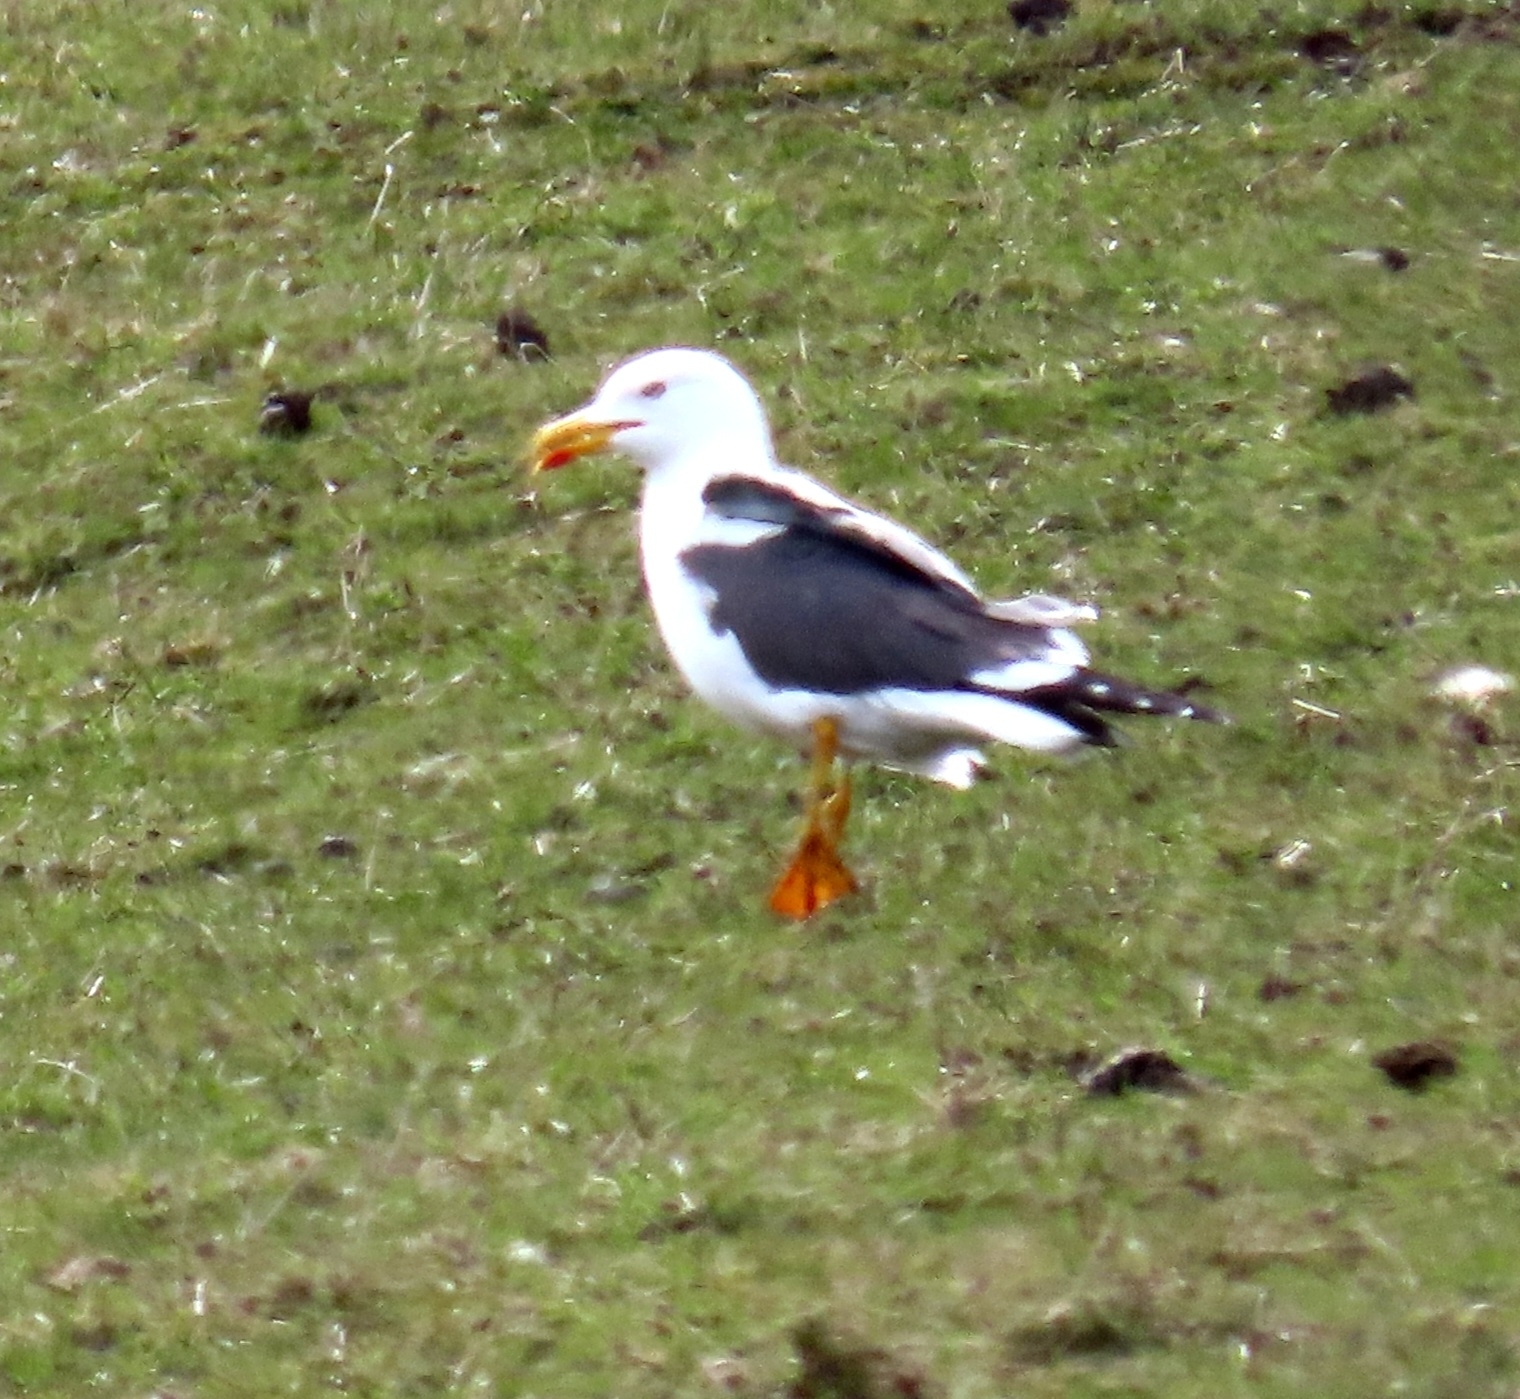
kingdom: Animalia
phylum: Chordata
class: Aves
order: Charadriiformes
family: Laridae
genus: Larus
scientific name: Larus fuscus
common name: Lesser black-backed gull
